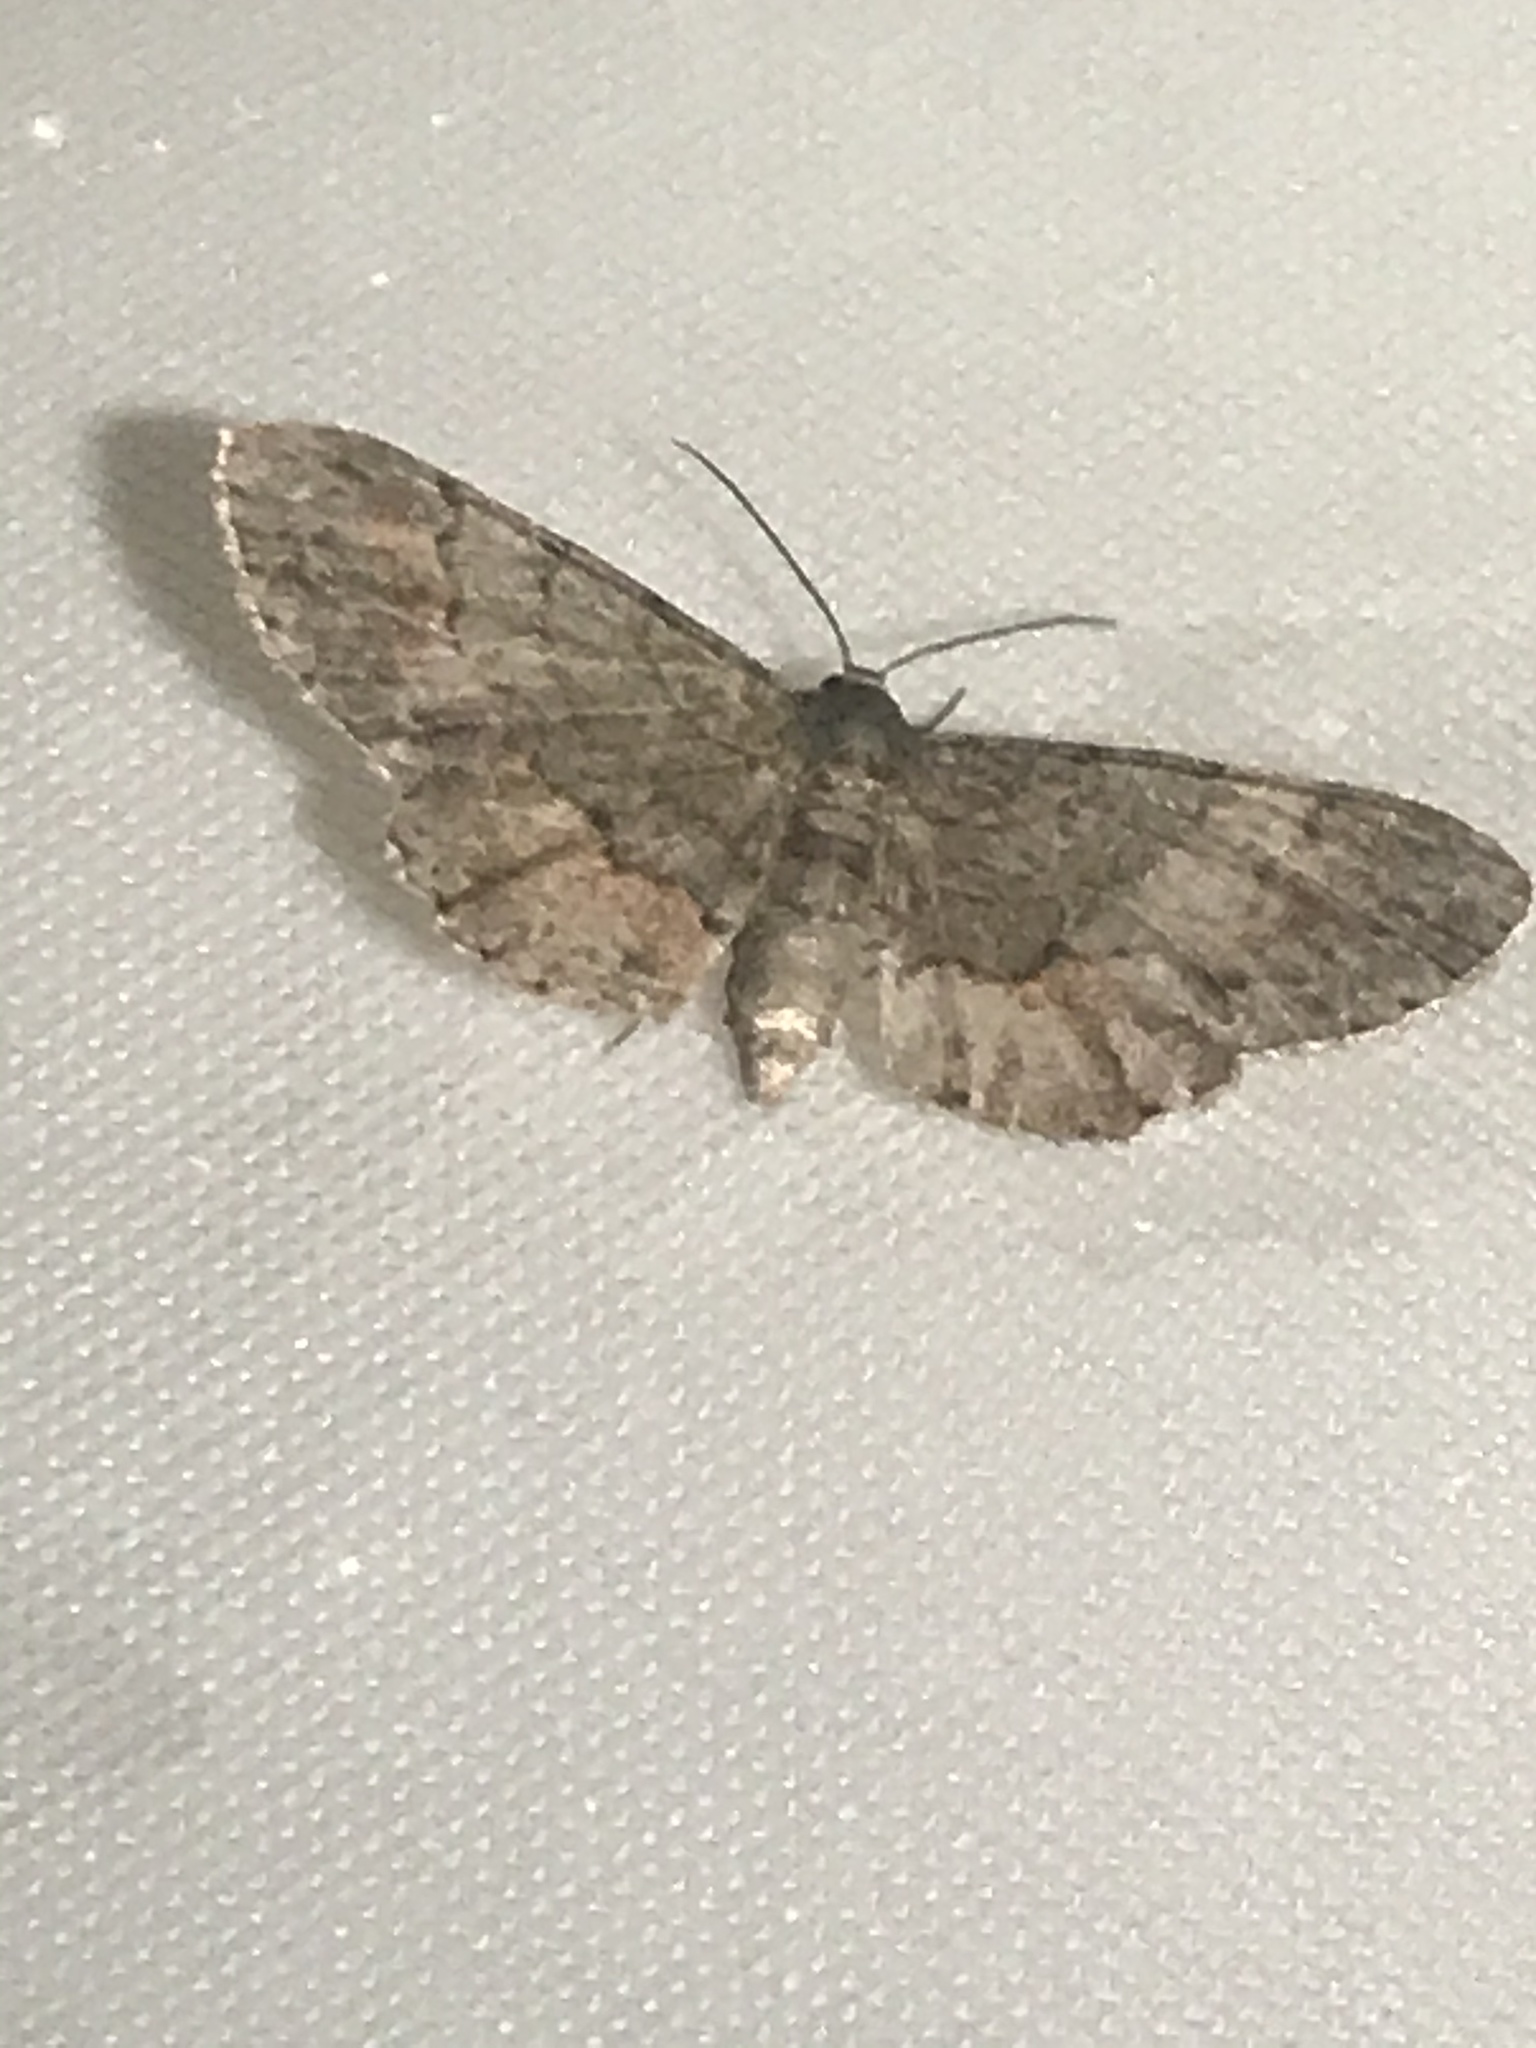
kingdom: Animalia
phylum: Arthropoda
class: Insecta
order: Lepidoptera
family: Geometridae
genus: Glenoides
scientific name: Glenoides texanaria
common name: Texas gray
